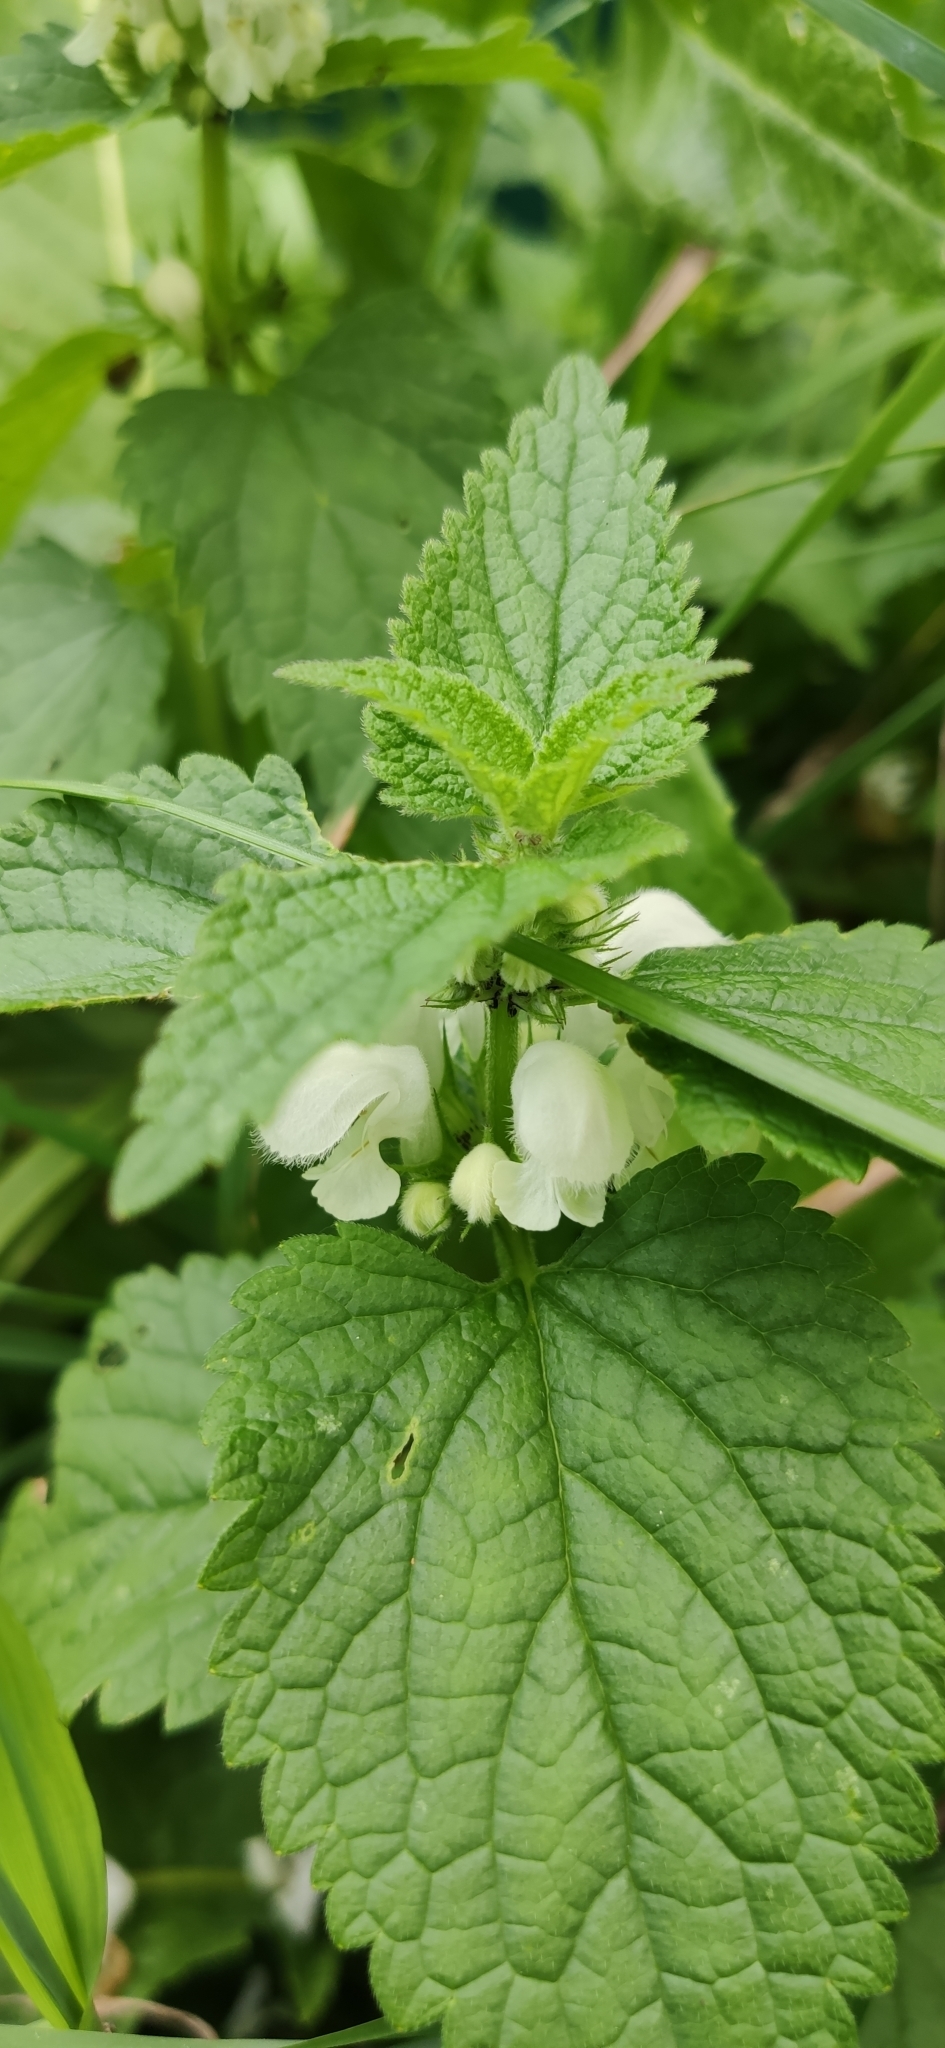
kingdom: Plantae
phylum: Tracheophyta
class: Magnoliopsida
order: Lamiales
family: Lamiaceae
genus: Lamium
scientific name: Lamium album
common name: White dead-nettle
